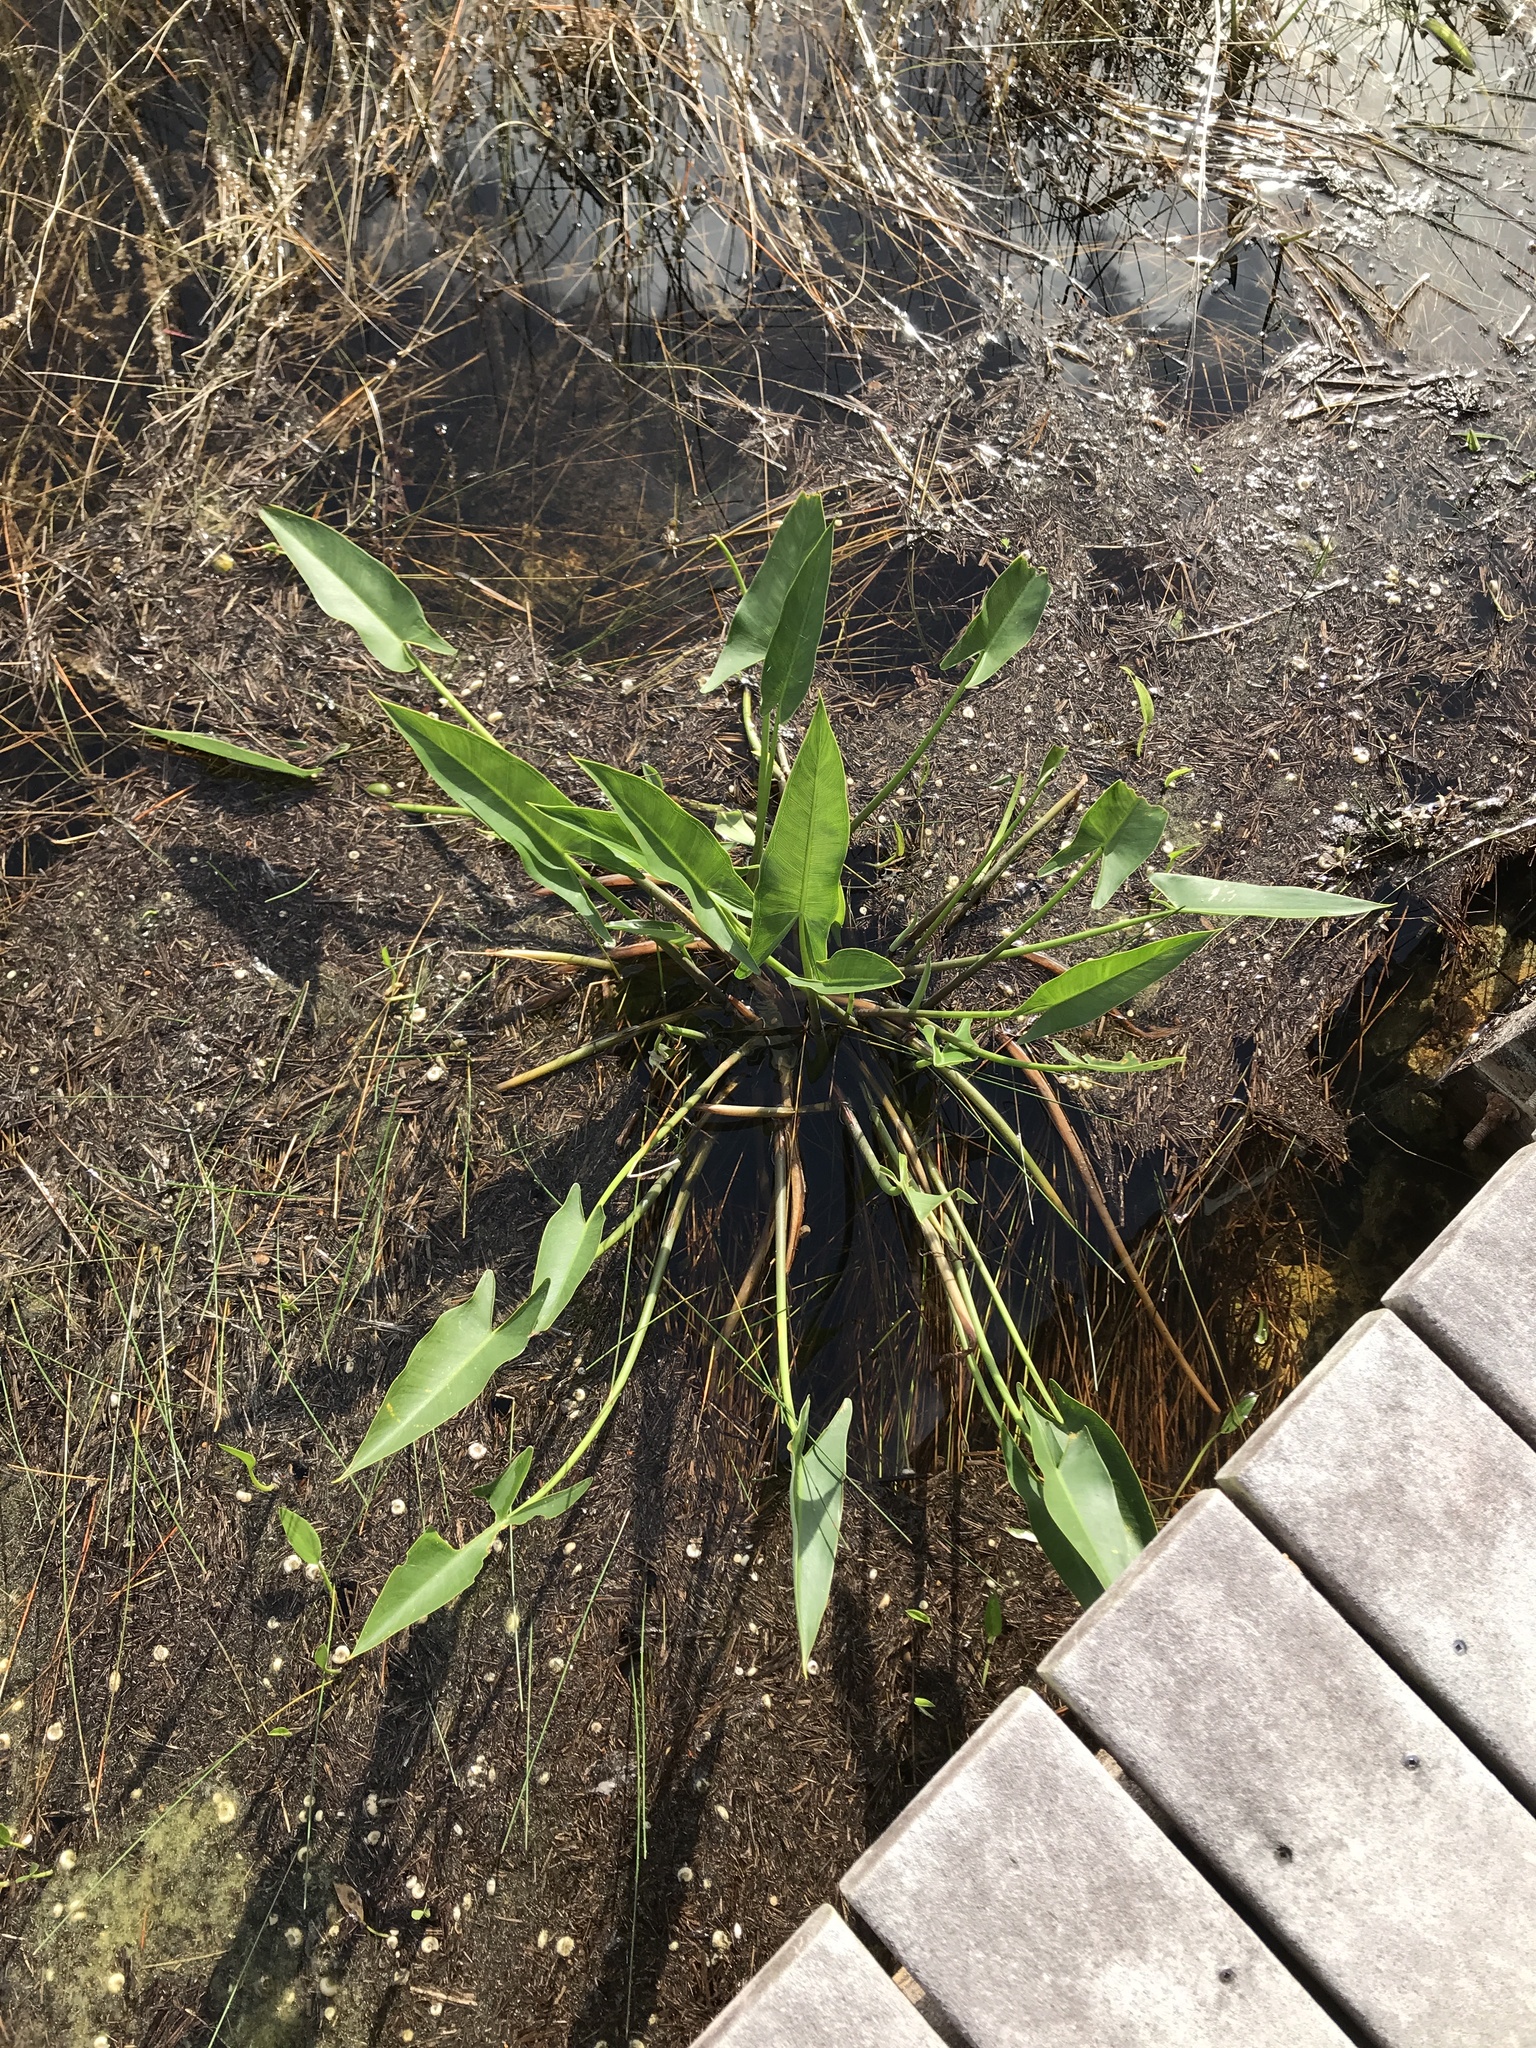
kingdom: Plantae
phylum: Tracheophyta
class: Liliopsida
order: Commelinales
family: Pontederiaceae
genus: Pontederia
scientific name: Pontederia cordata
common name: Pickerelweed
